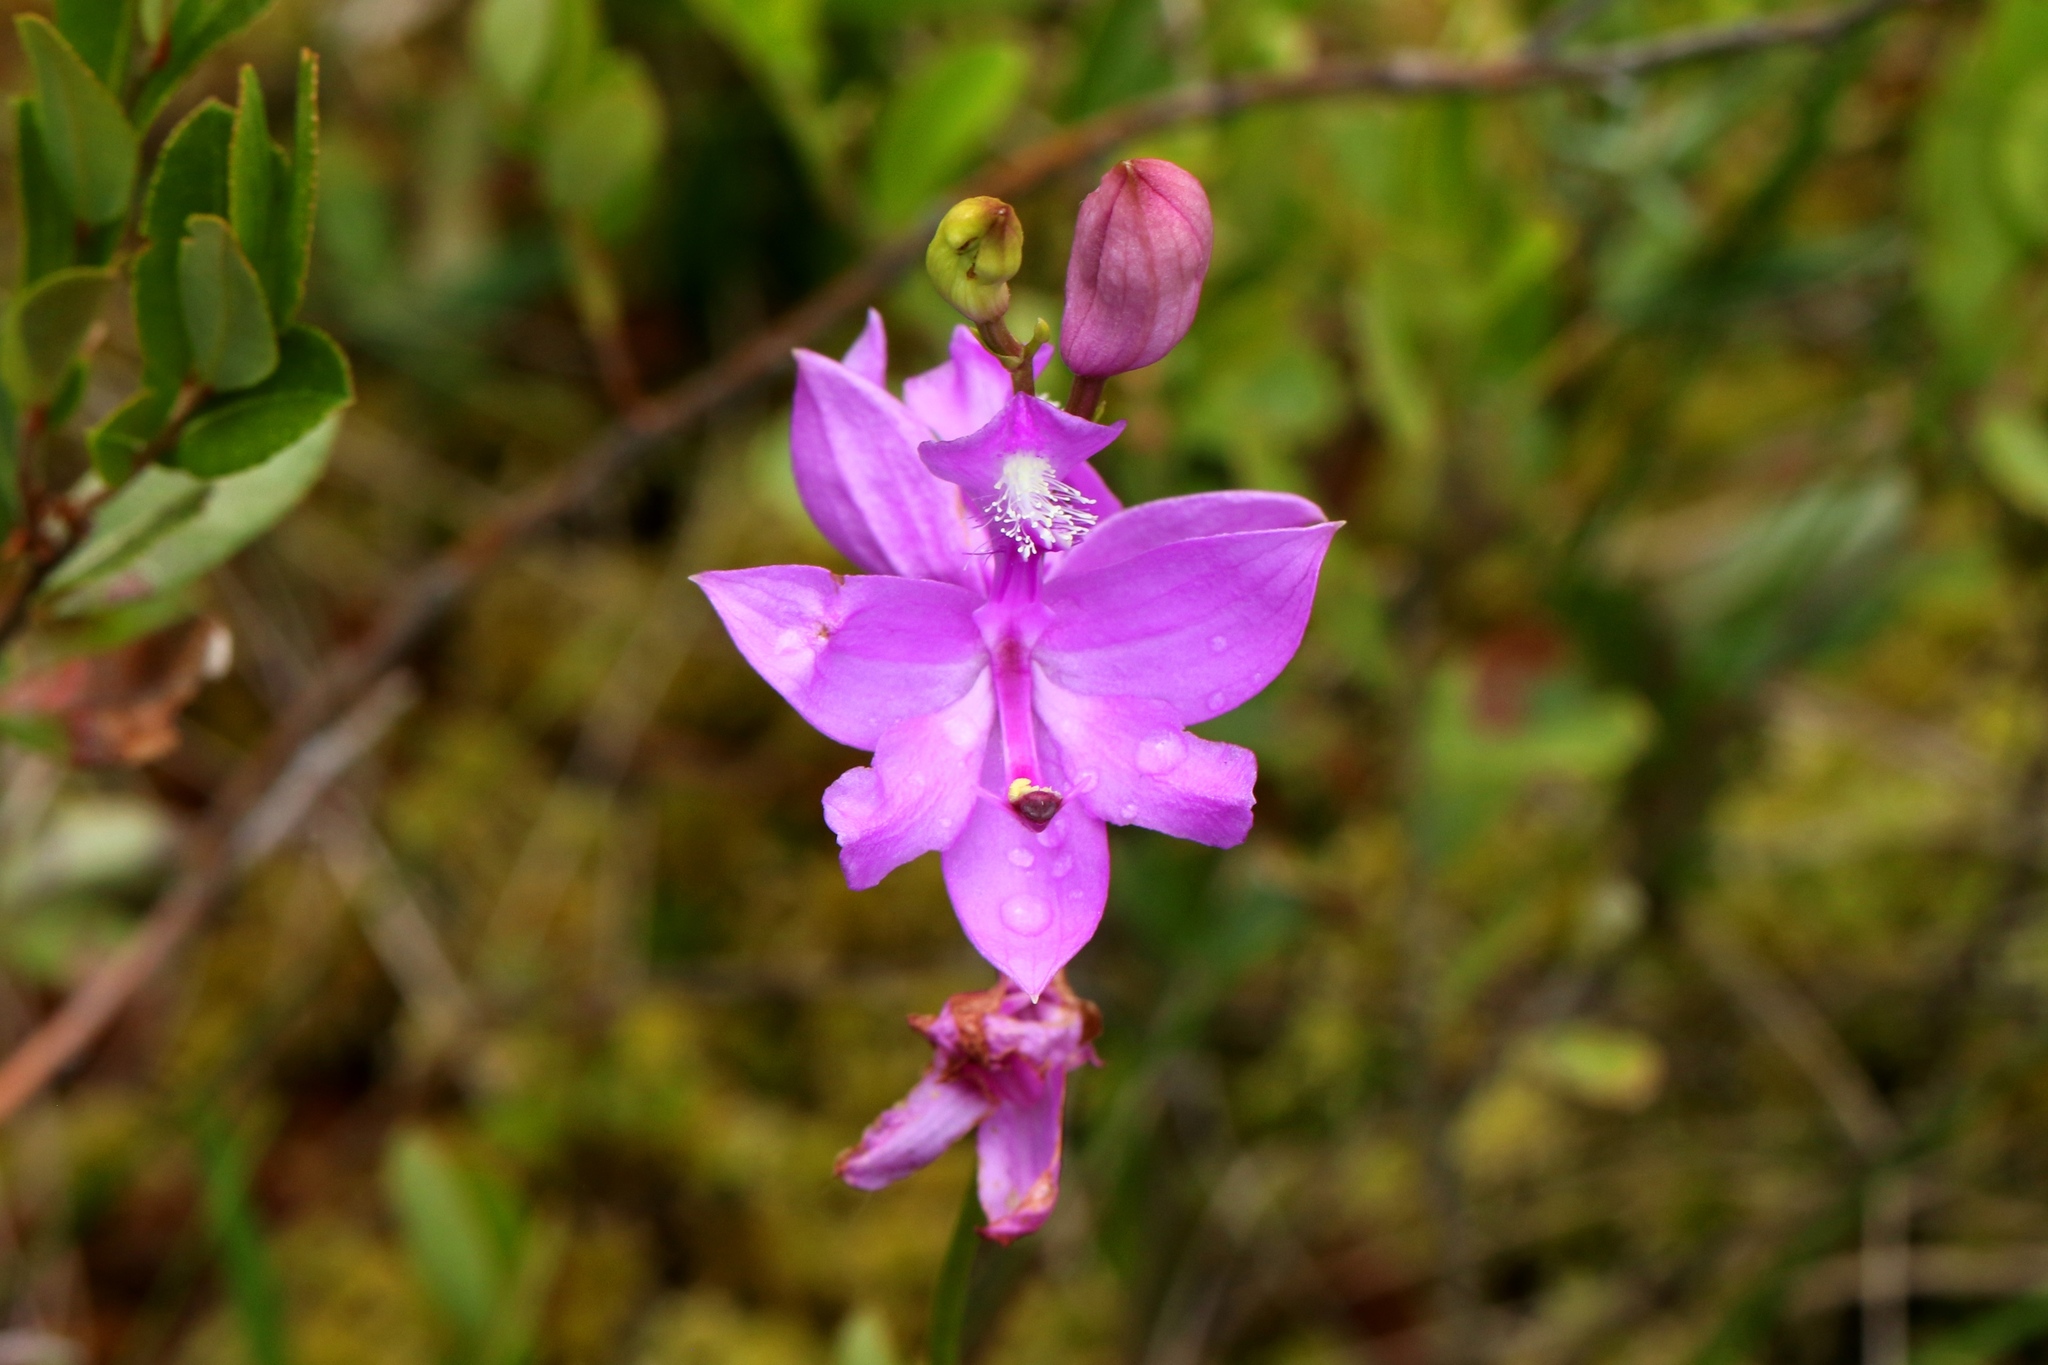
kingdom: Plantae
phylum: Tracheophyta
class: Liliopsida
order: Asparagales
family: Orchidaceae
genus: Calopogon
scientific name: Calopogon tuberosus
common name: Grass-pink
